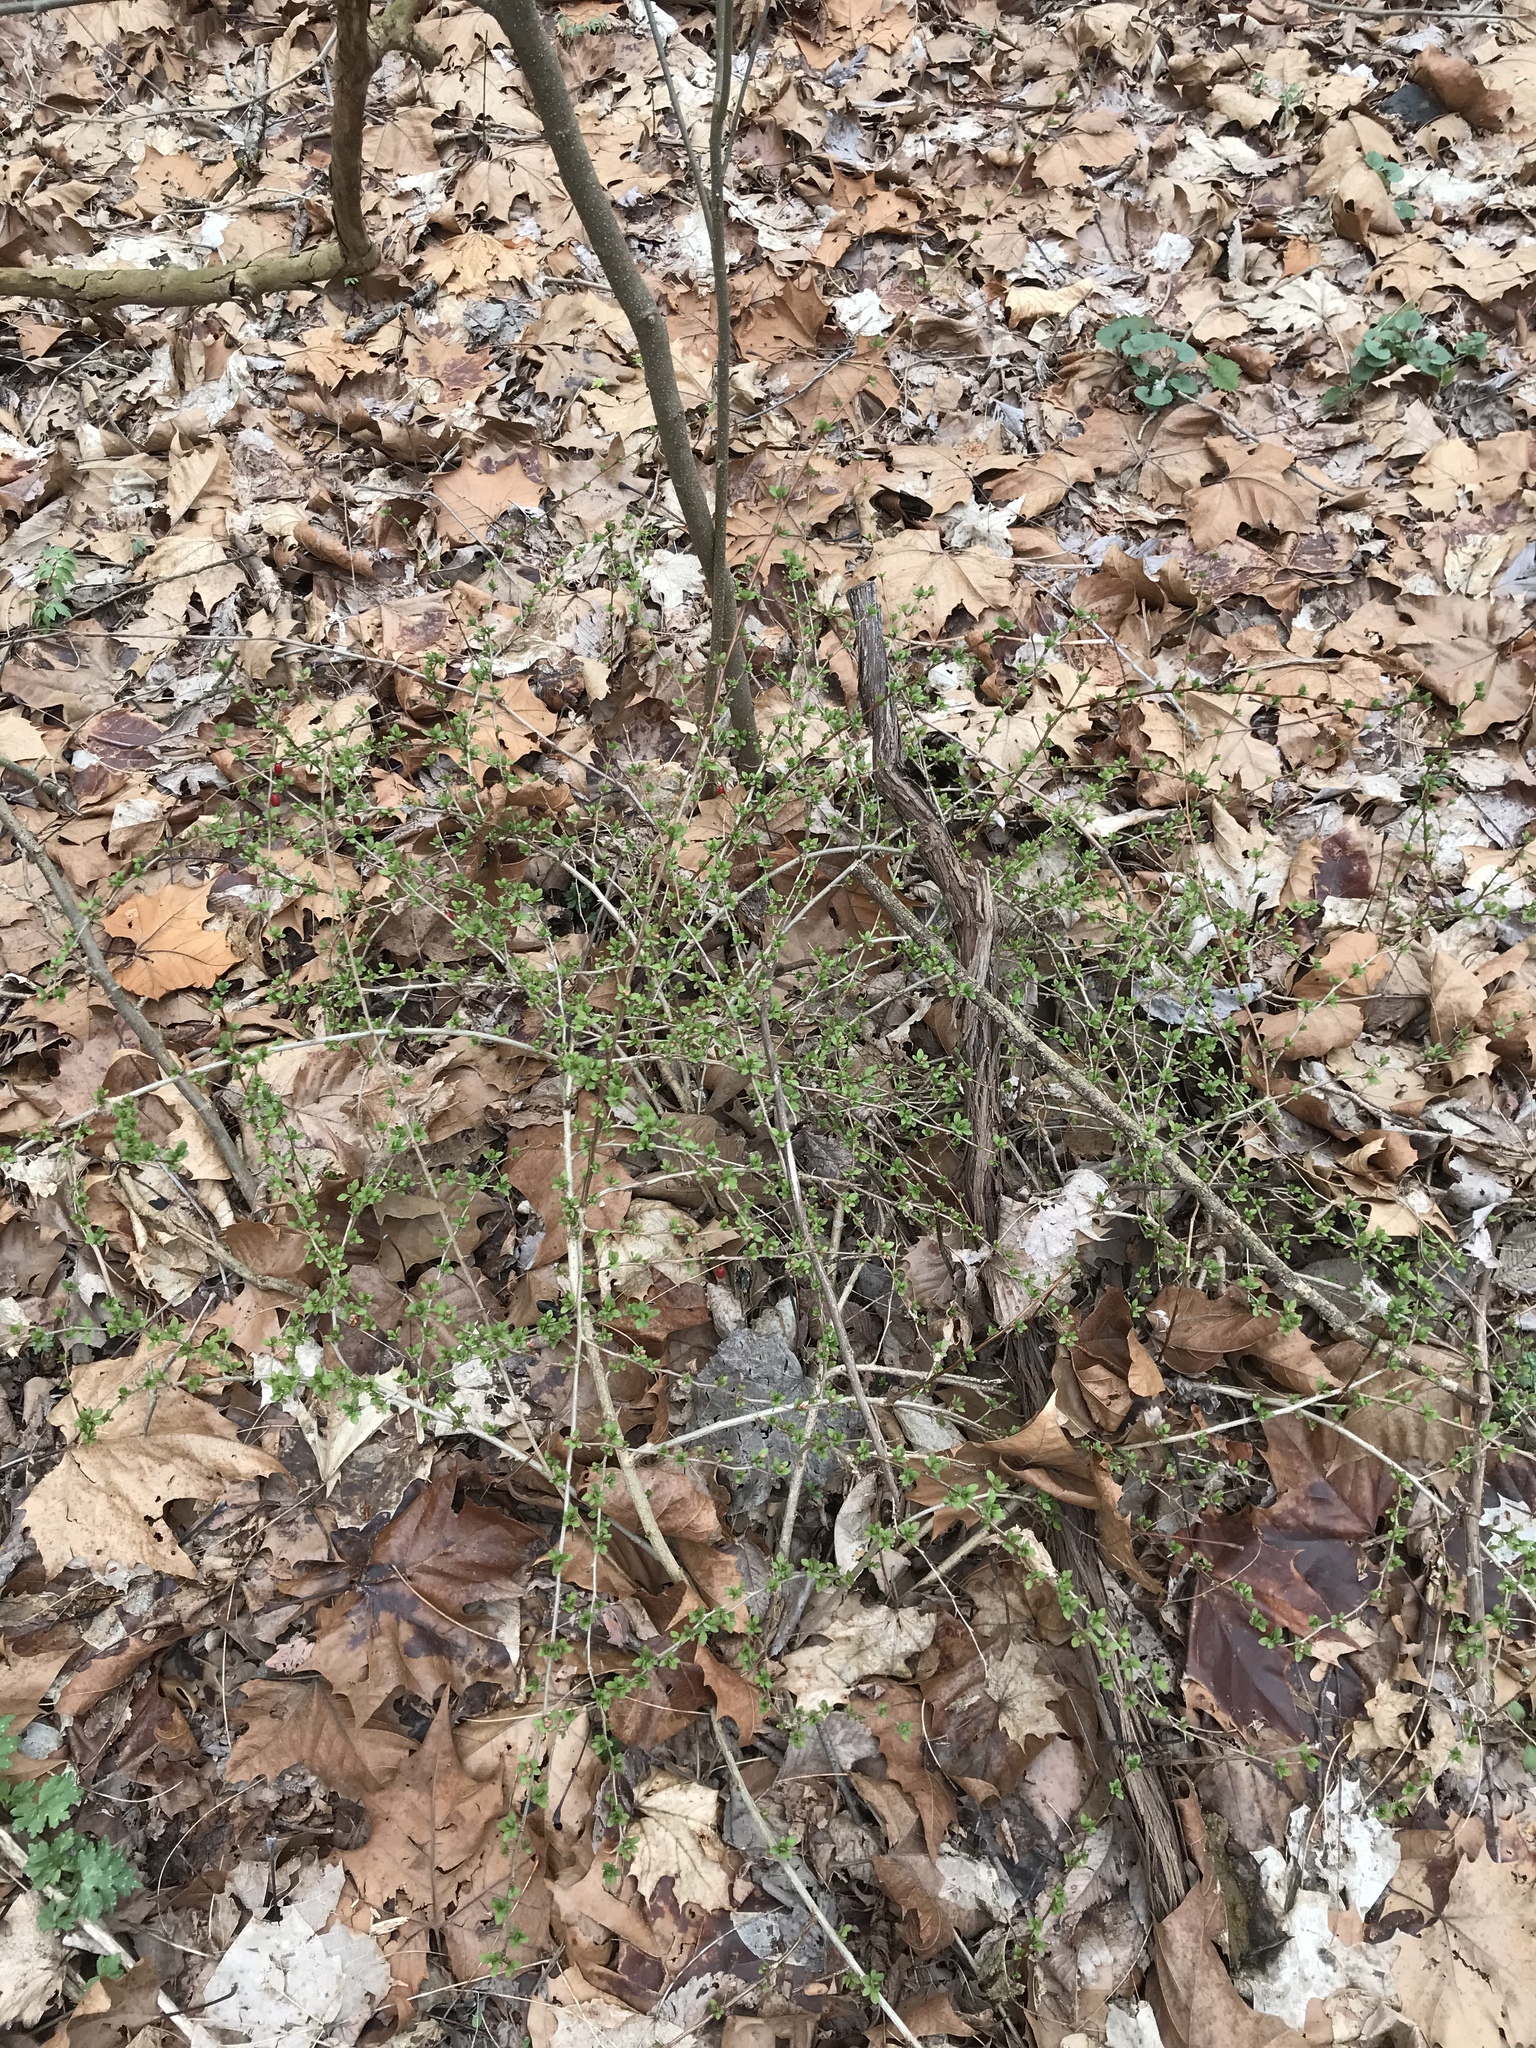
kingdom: Plantae
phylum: Tracheophyta
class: Magnoliopsida
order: Ranunculales
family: Berberidaceae
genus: Berberis
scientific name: Berberis thunbergii
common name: Japanese barberry
